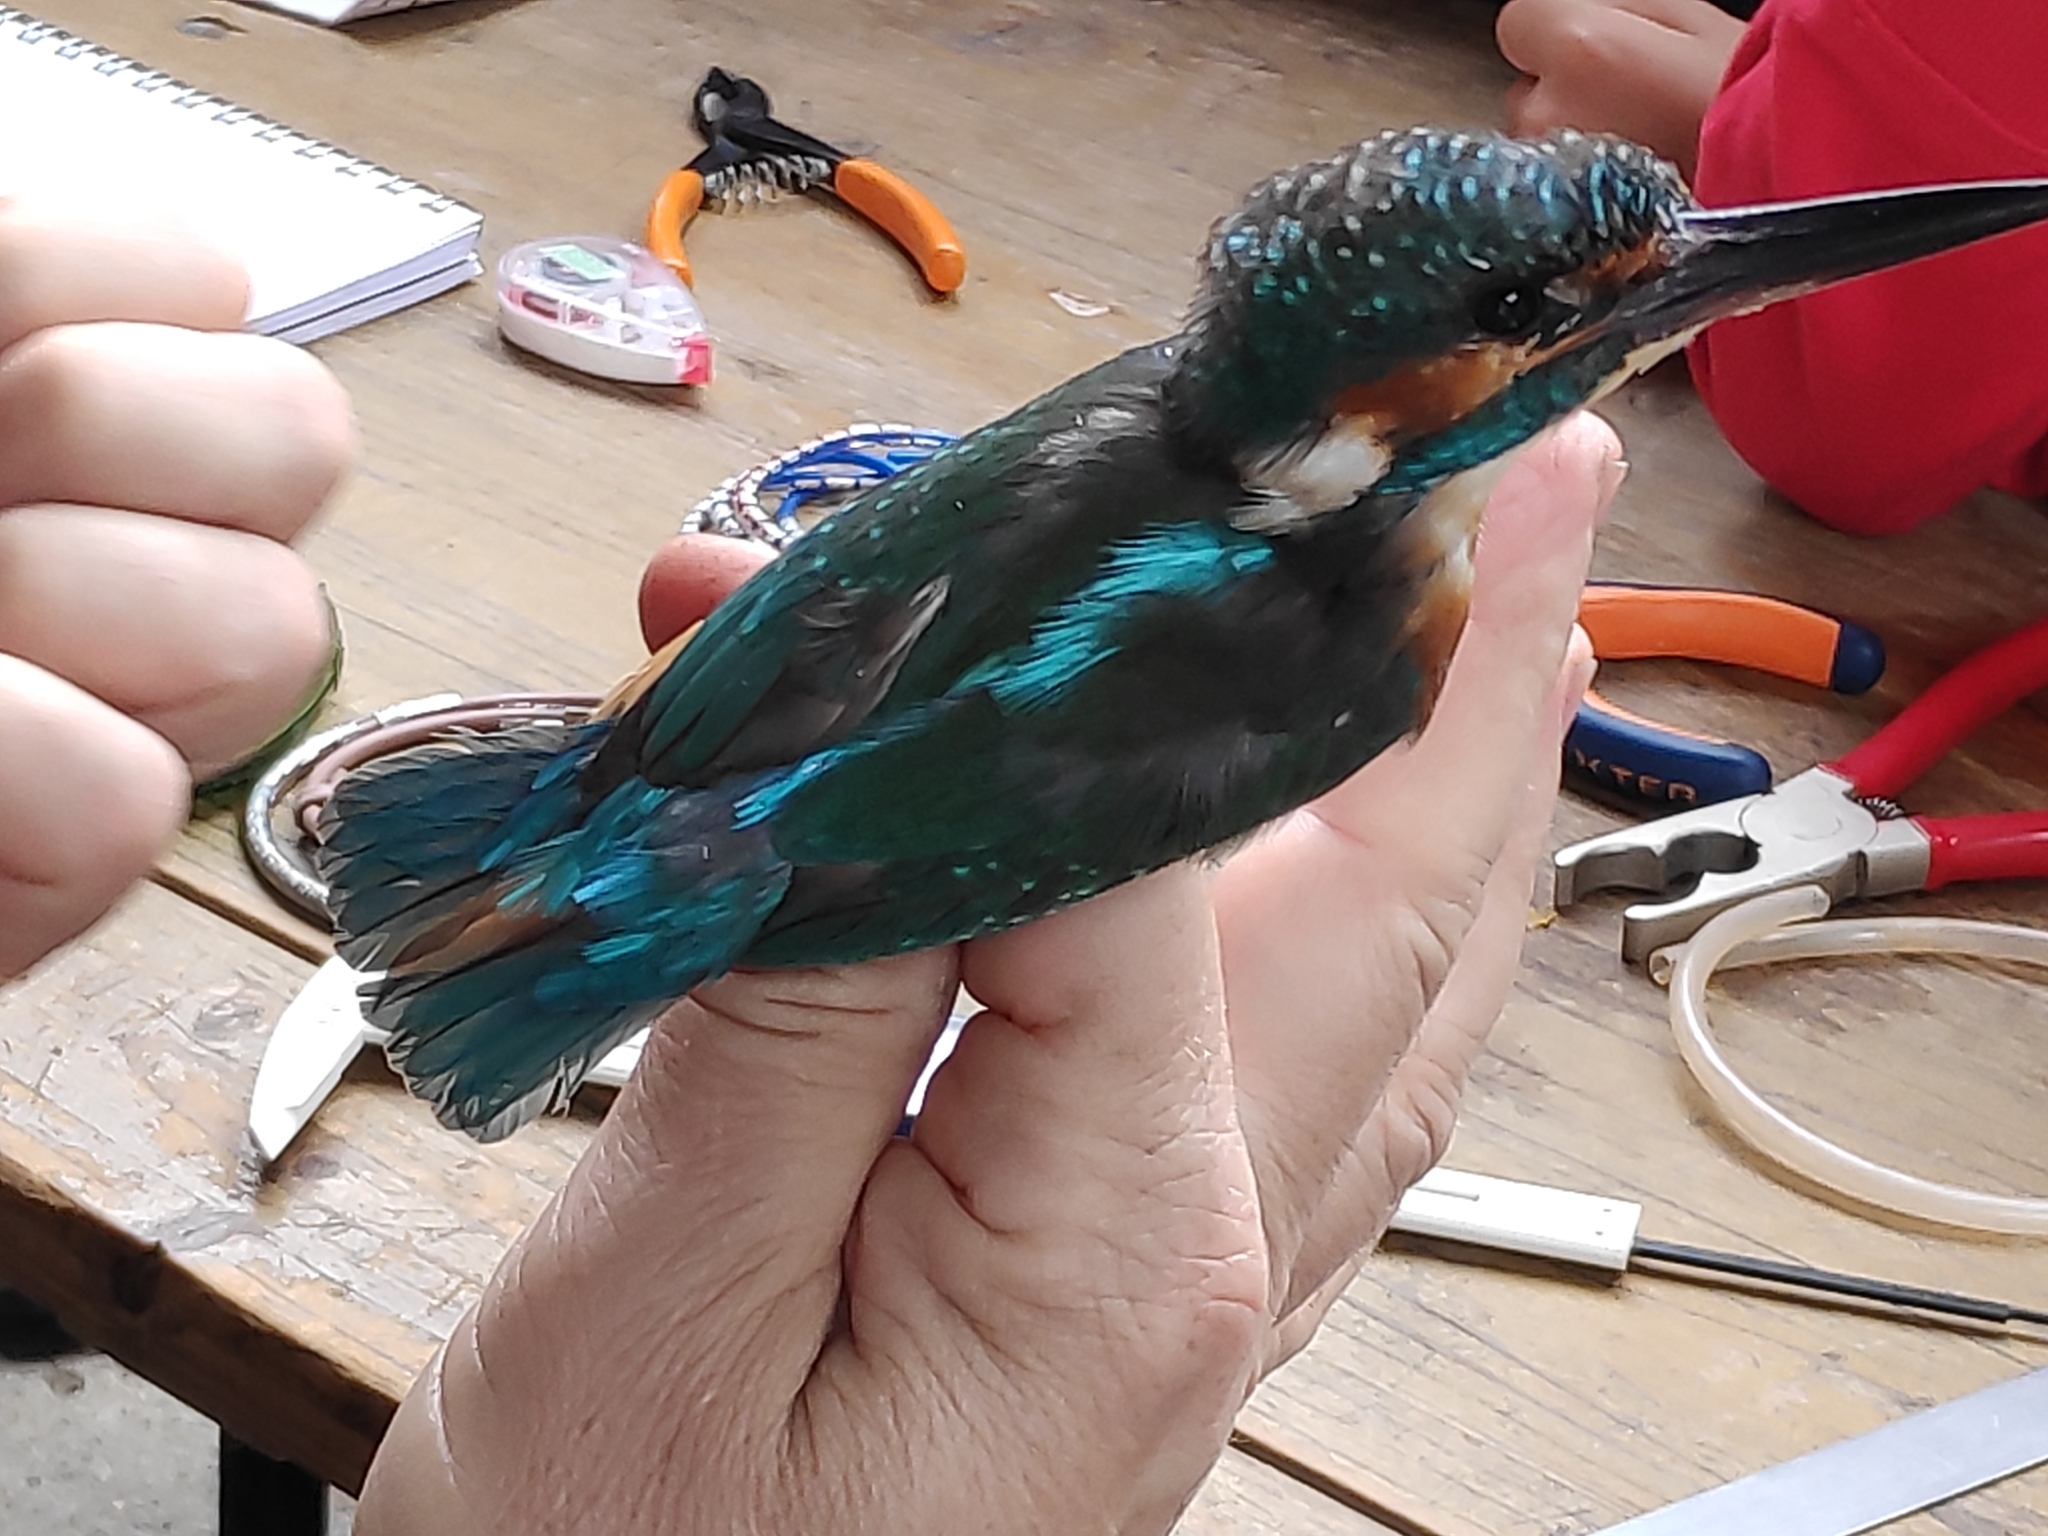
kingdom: Animalia
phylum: Chordata
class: Aves
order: Coraciiformes
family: Alcedinidae
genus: Alcedo
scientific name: Alcedo atthis
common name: Common kingfisher
